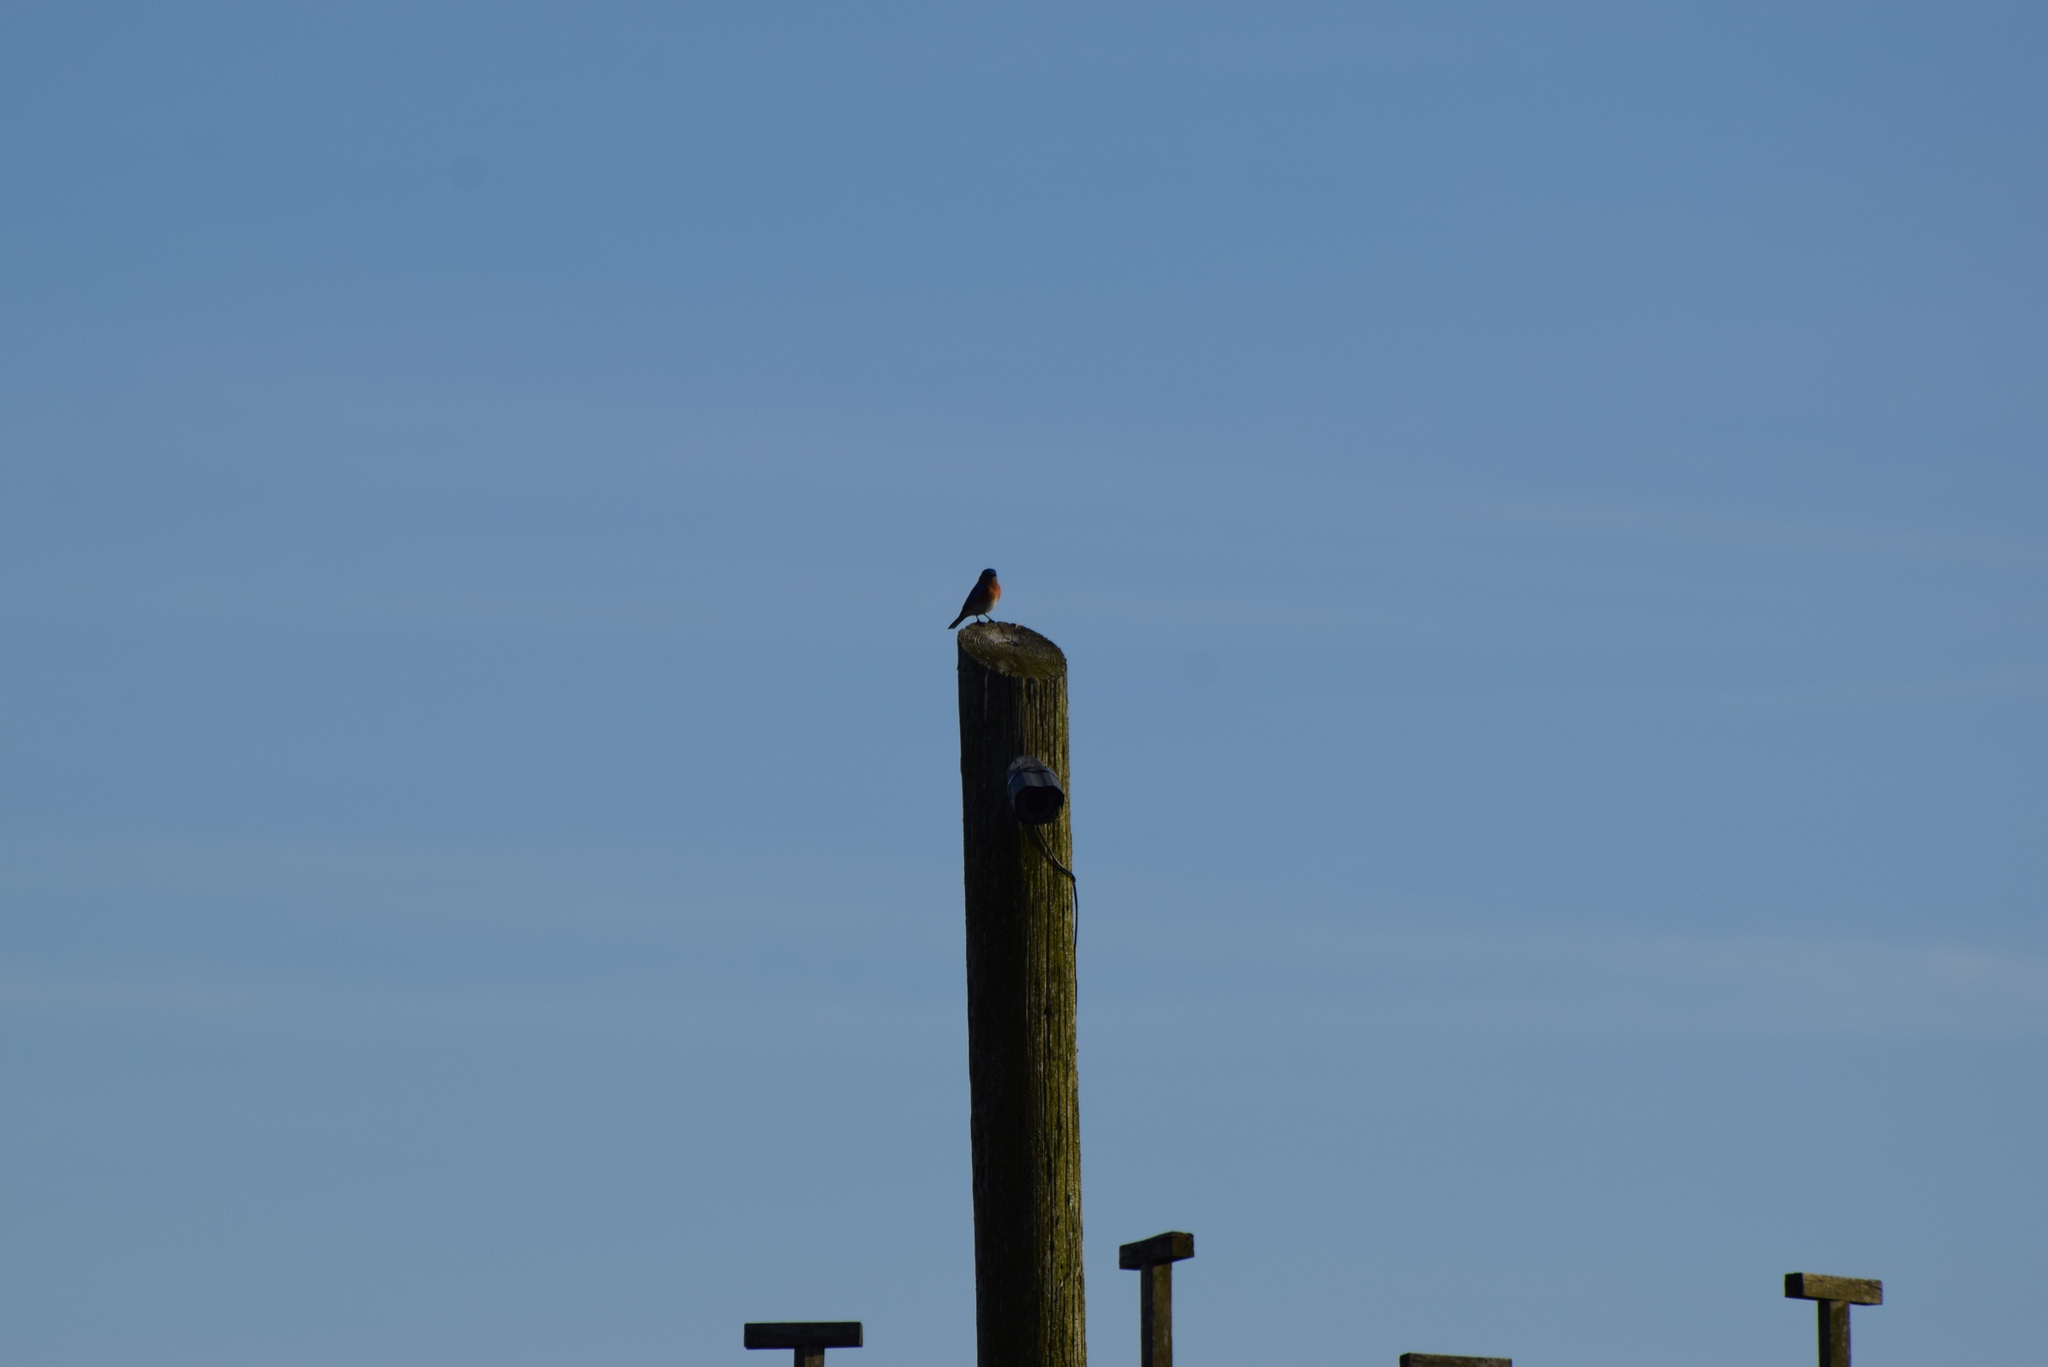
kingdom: Animalia
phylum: Chordata
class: Aves
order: Passeriformes
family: Turdidae
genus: Sialia
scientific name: Sialia sialis
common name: Eastern bluebird
